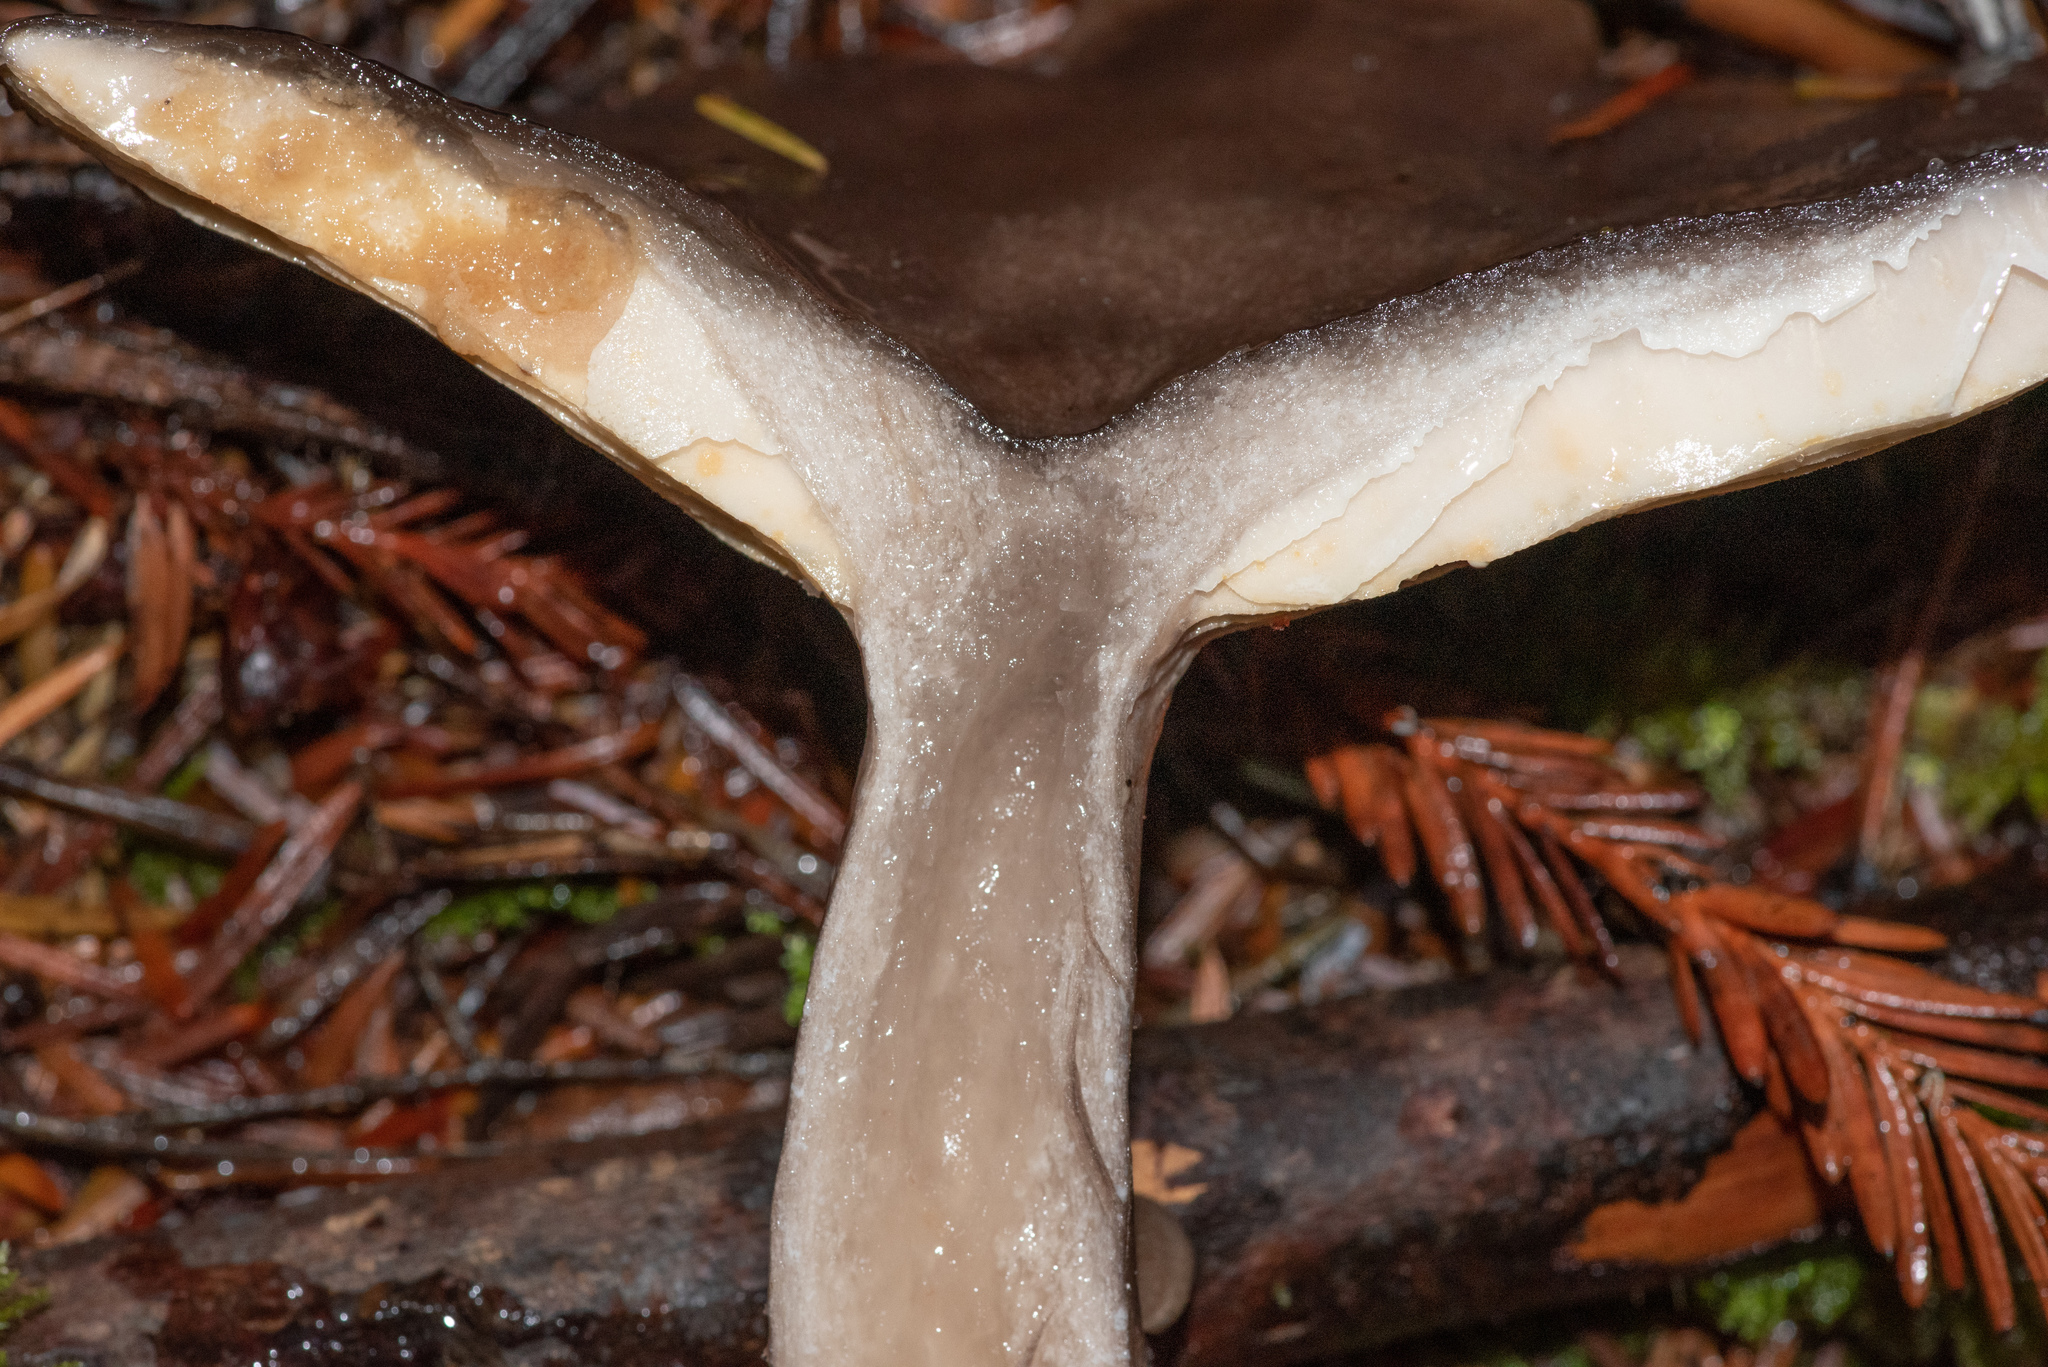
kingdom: Fungi
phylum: Basidiomycota
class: Agaricomycetes
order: Russulales
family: Russulaceae
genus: Lactarius
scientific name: Lactarius pseudomucidus
